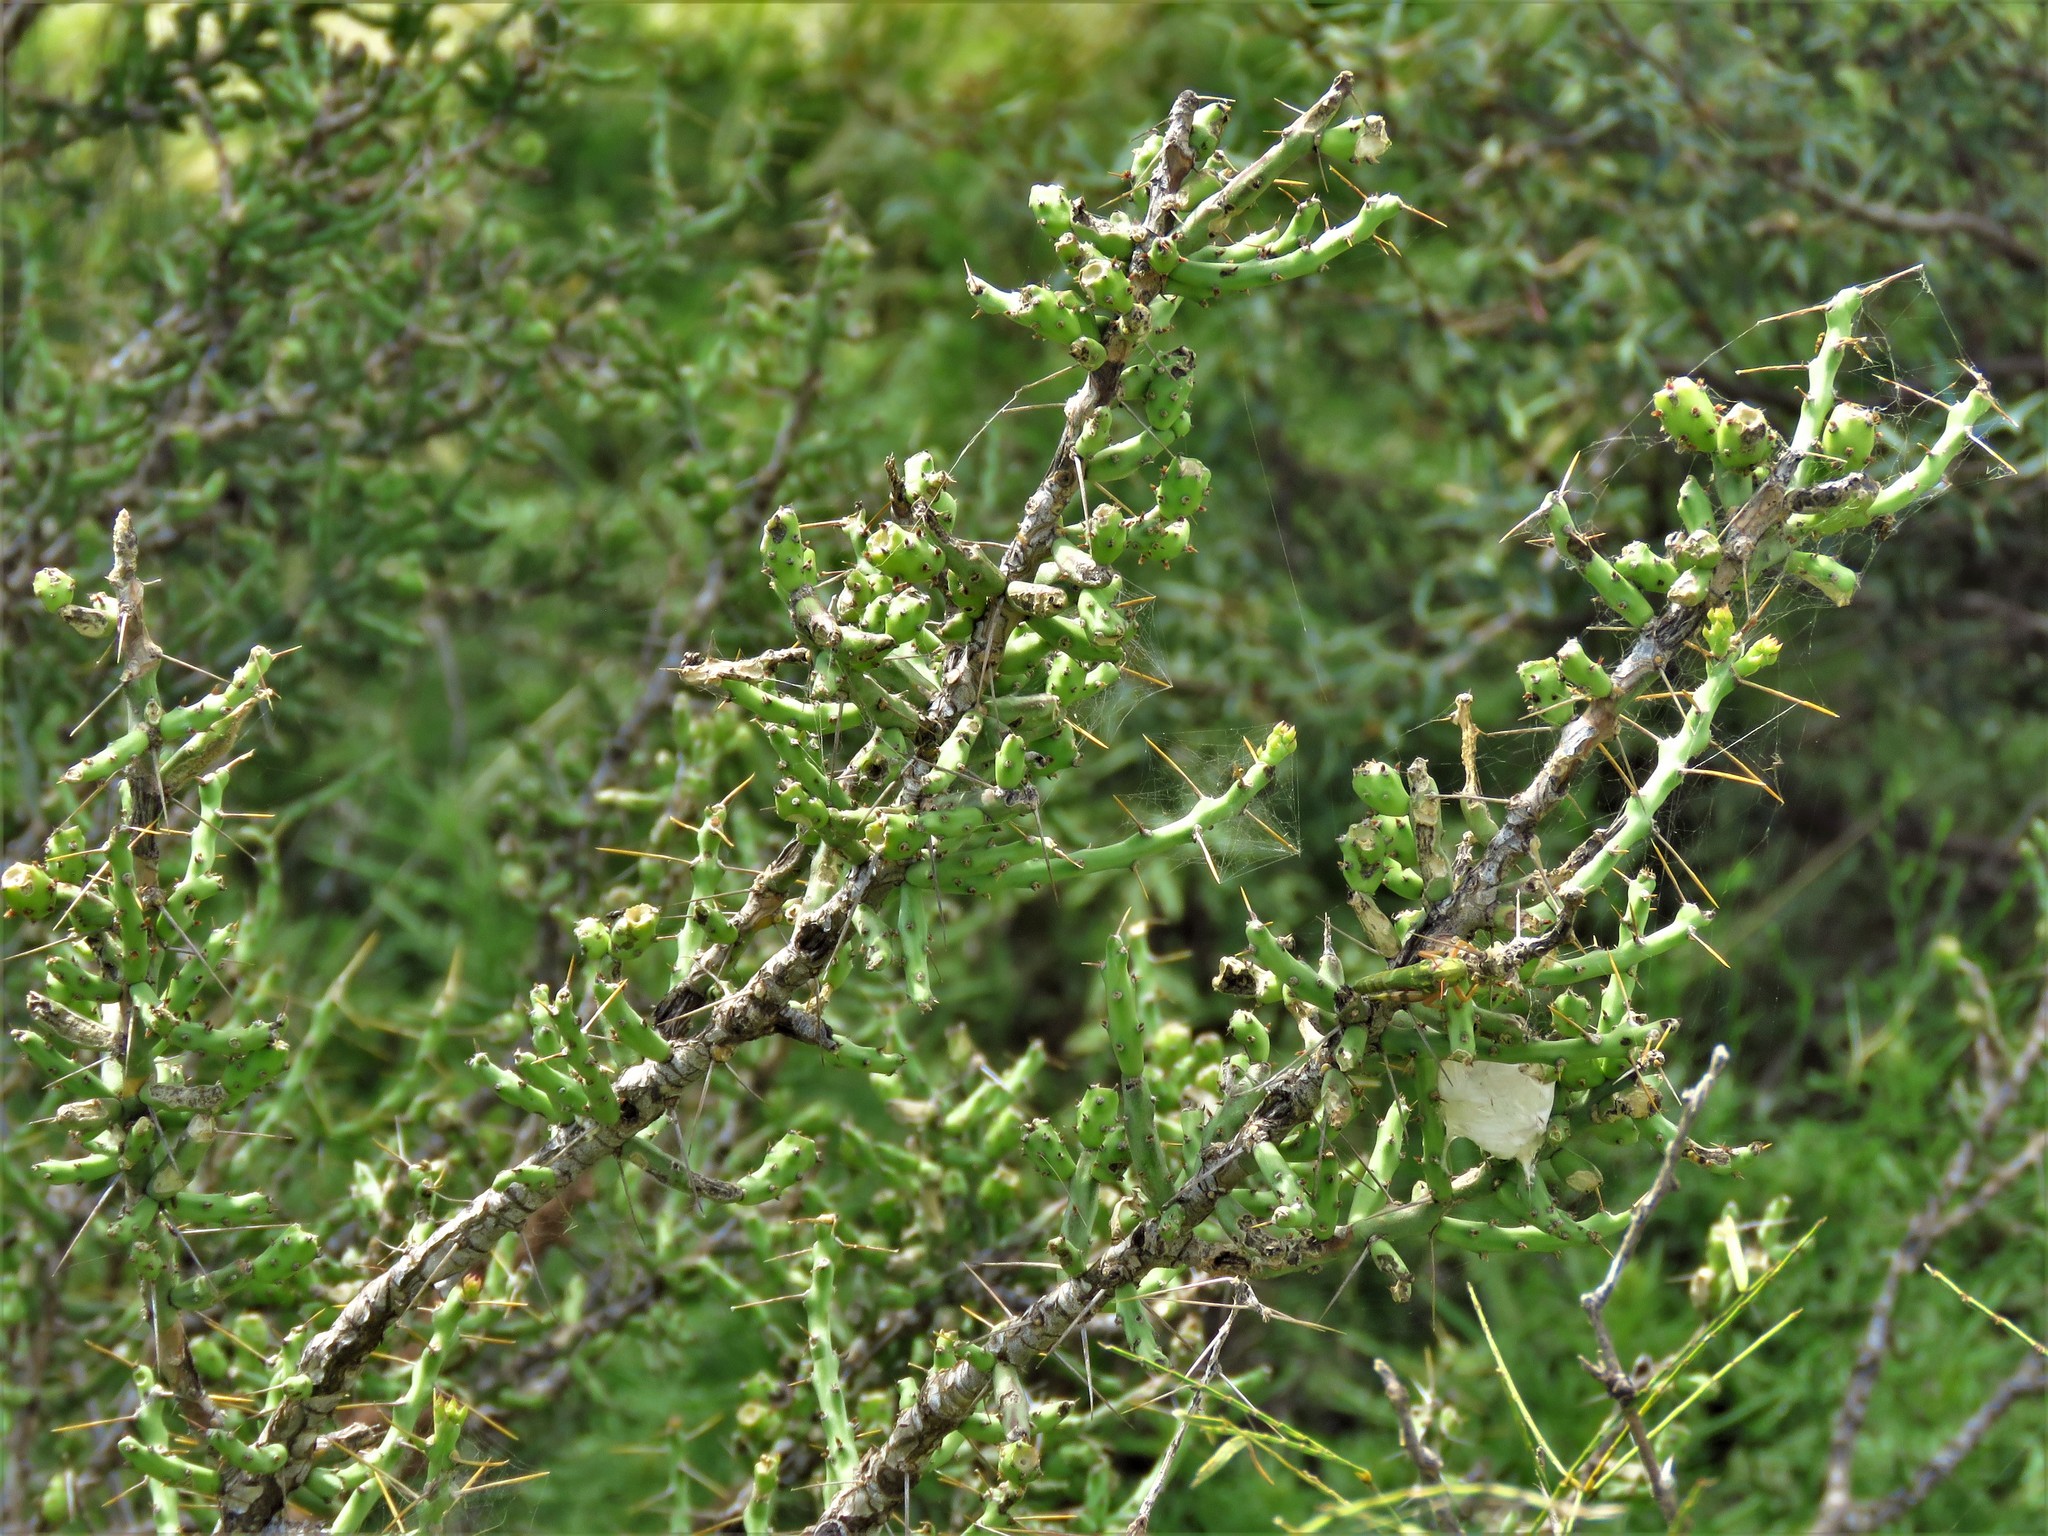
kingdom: Plantae
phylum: Tracheophyta
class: Magnoliopsida
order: Caryophyllales
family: Cactaceae
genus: Cylindropuntia
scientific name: Cylindropuntia leptocaulis
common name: Christmas cactus
